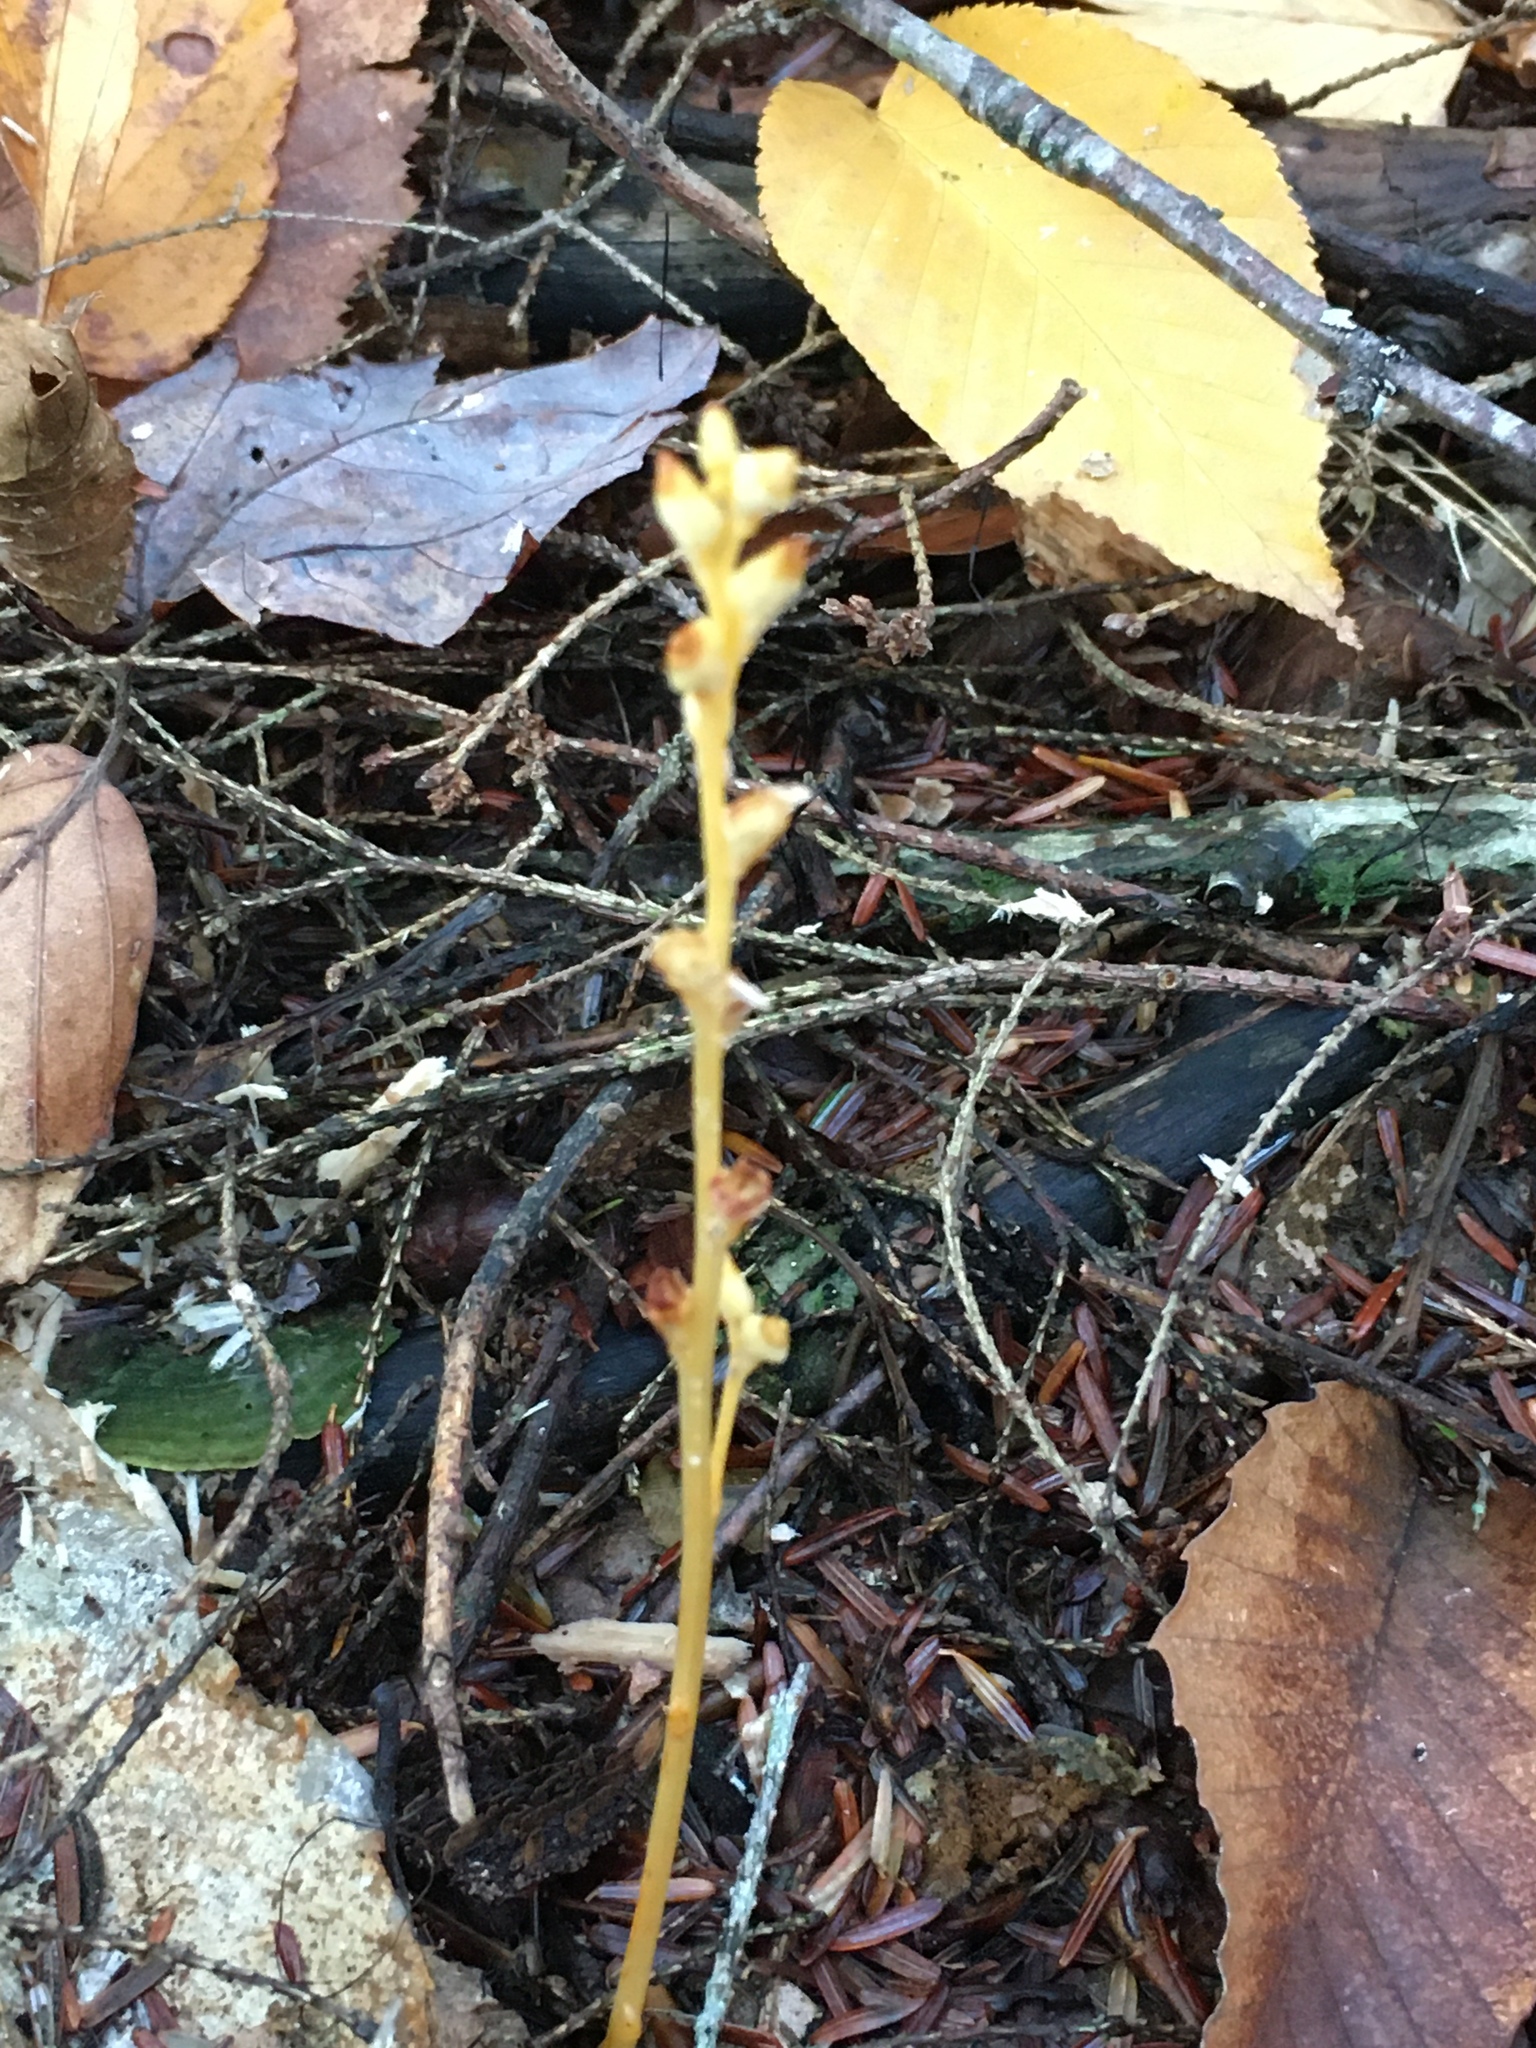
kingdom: Plantae
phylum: Tracheophyta
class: Magnoliopsida
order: Lamiales
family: Orobanchaceae
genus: Epifagus
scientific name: Epifagus virginiana
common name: Beechdrops
